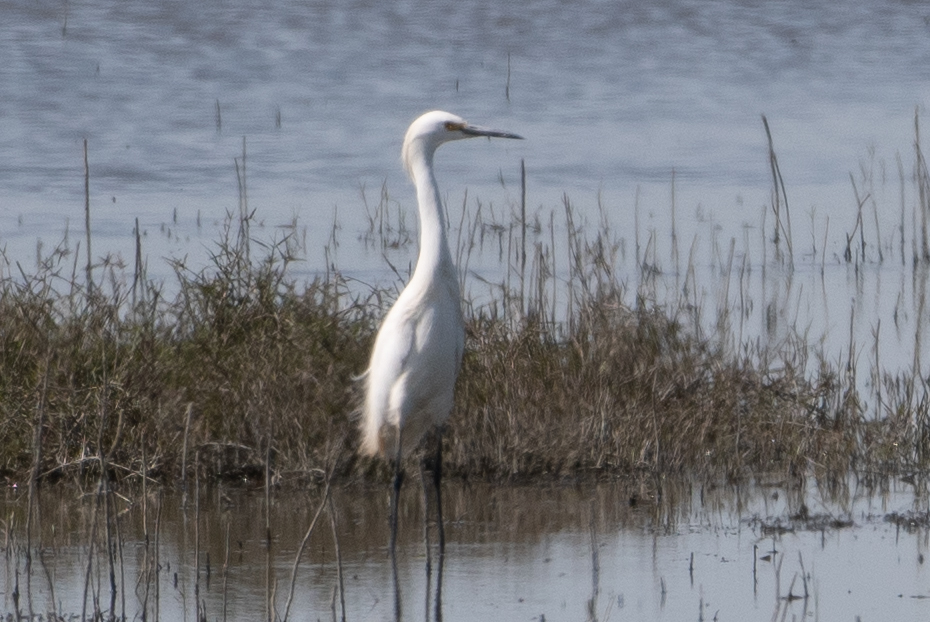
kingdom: Animalia
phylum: Chordata
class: Aves
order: Pelecaniformes
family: Ardeidae
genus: Ardea
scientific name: Ardea alba
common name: Great egret
